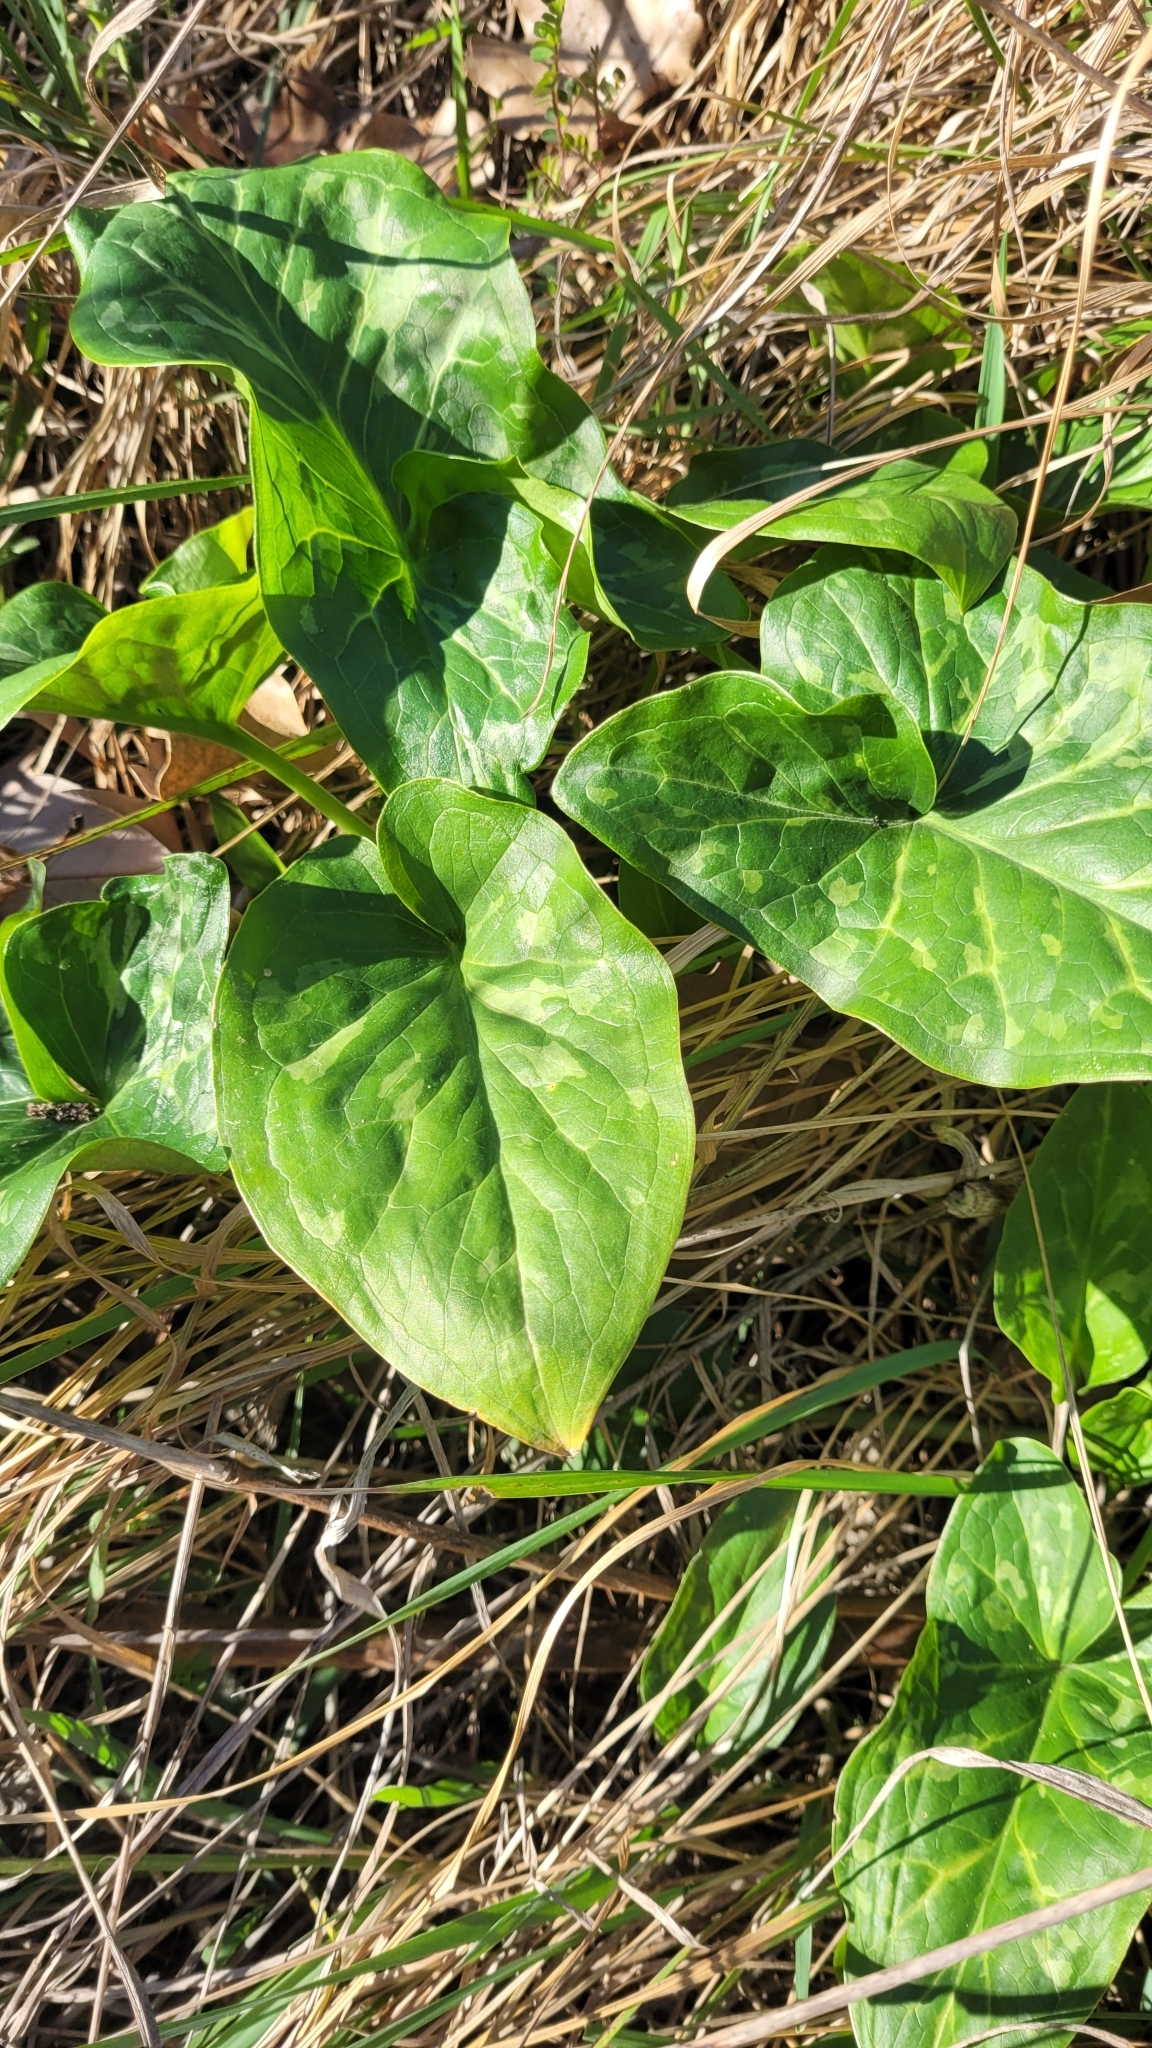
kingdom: Plantae
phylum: Tracheophyta
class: Liliopsida
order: Alismatales
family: Araceae
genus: Arum
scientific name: Arum italicum
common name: Italian lords-and-ladies
